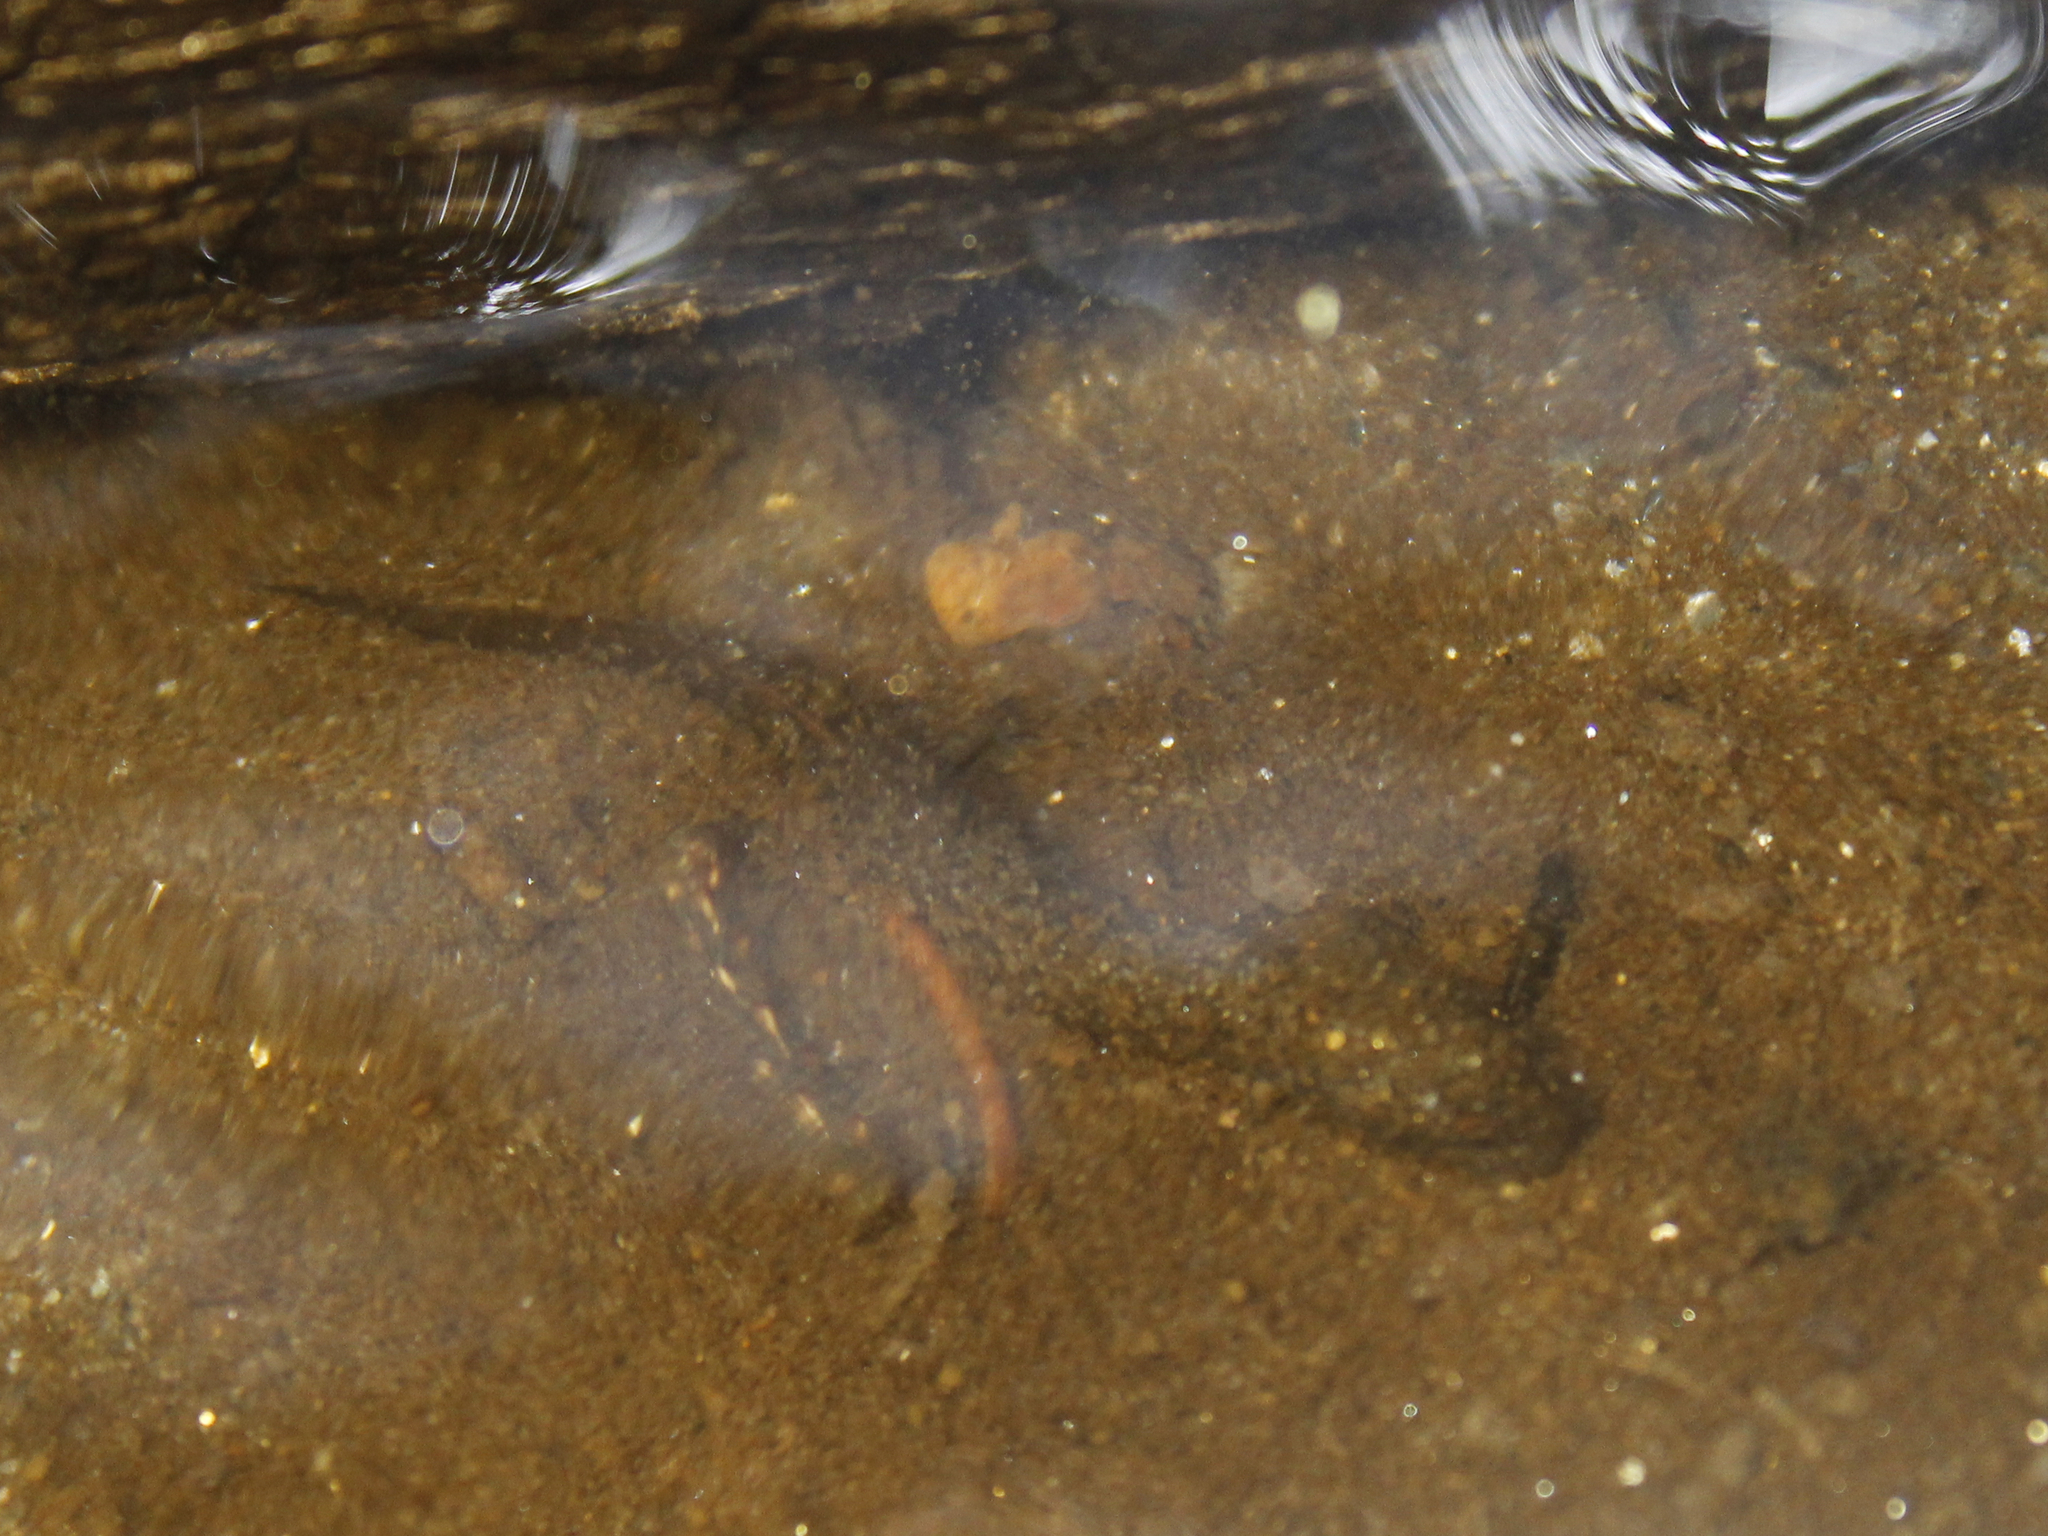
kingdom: Animalia
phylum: Chordata
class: Amphibia
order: Caudata
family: Plethodontidae
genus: Eurycea
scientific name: Eurycea bislineata
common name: Northern two-lined salamander
